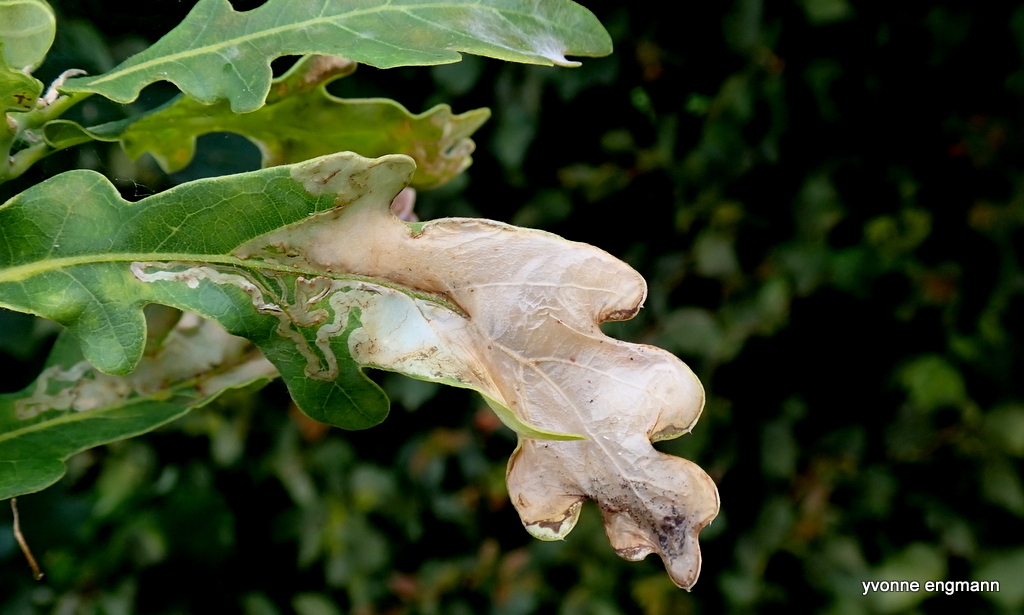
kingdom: Animalia
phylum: Arthropoda
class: Insecta
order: Lepidoptera
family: Gracillariidae
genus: Acrocercops
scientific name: Acrocercops brongniardella
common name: Brown oak slender
